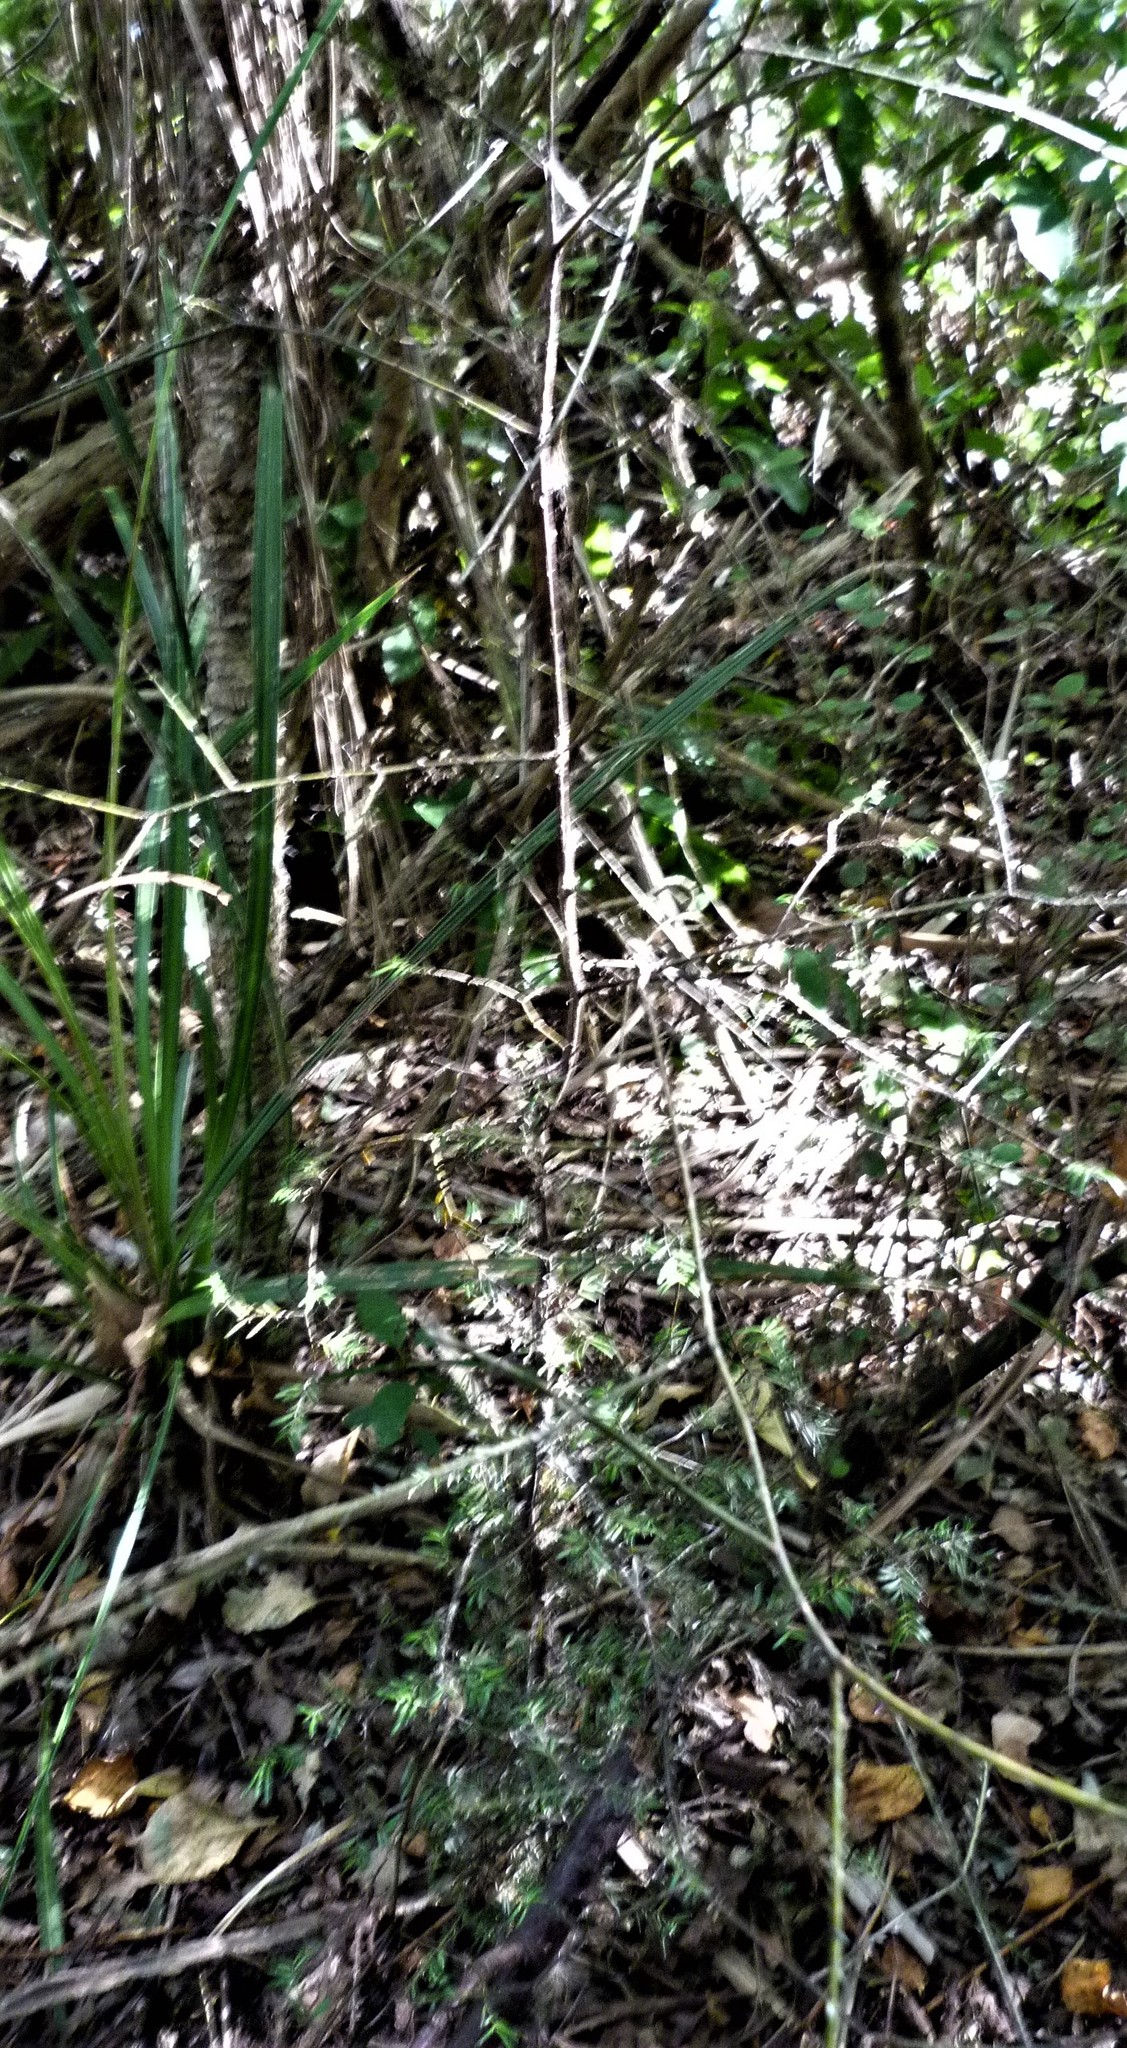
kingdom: Plantae
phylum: Tracheophyta
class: Pinopsida
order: Pinales
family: Podocarpaceae
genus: Prumnopitys
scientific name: Prumnopitys taxifolia
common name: Matai
